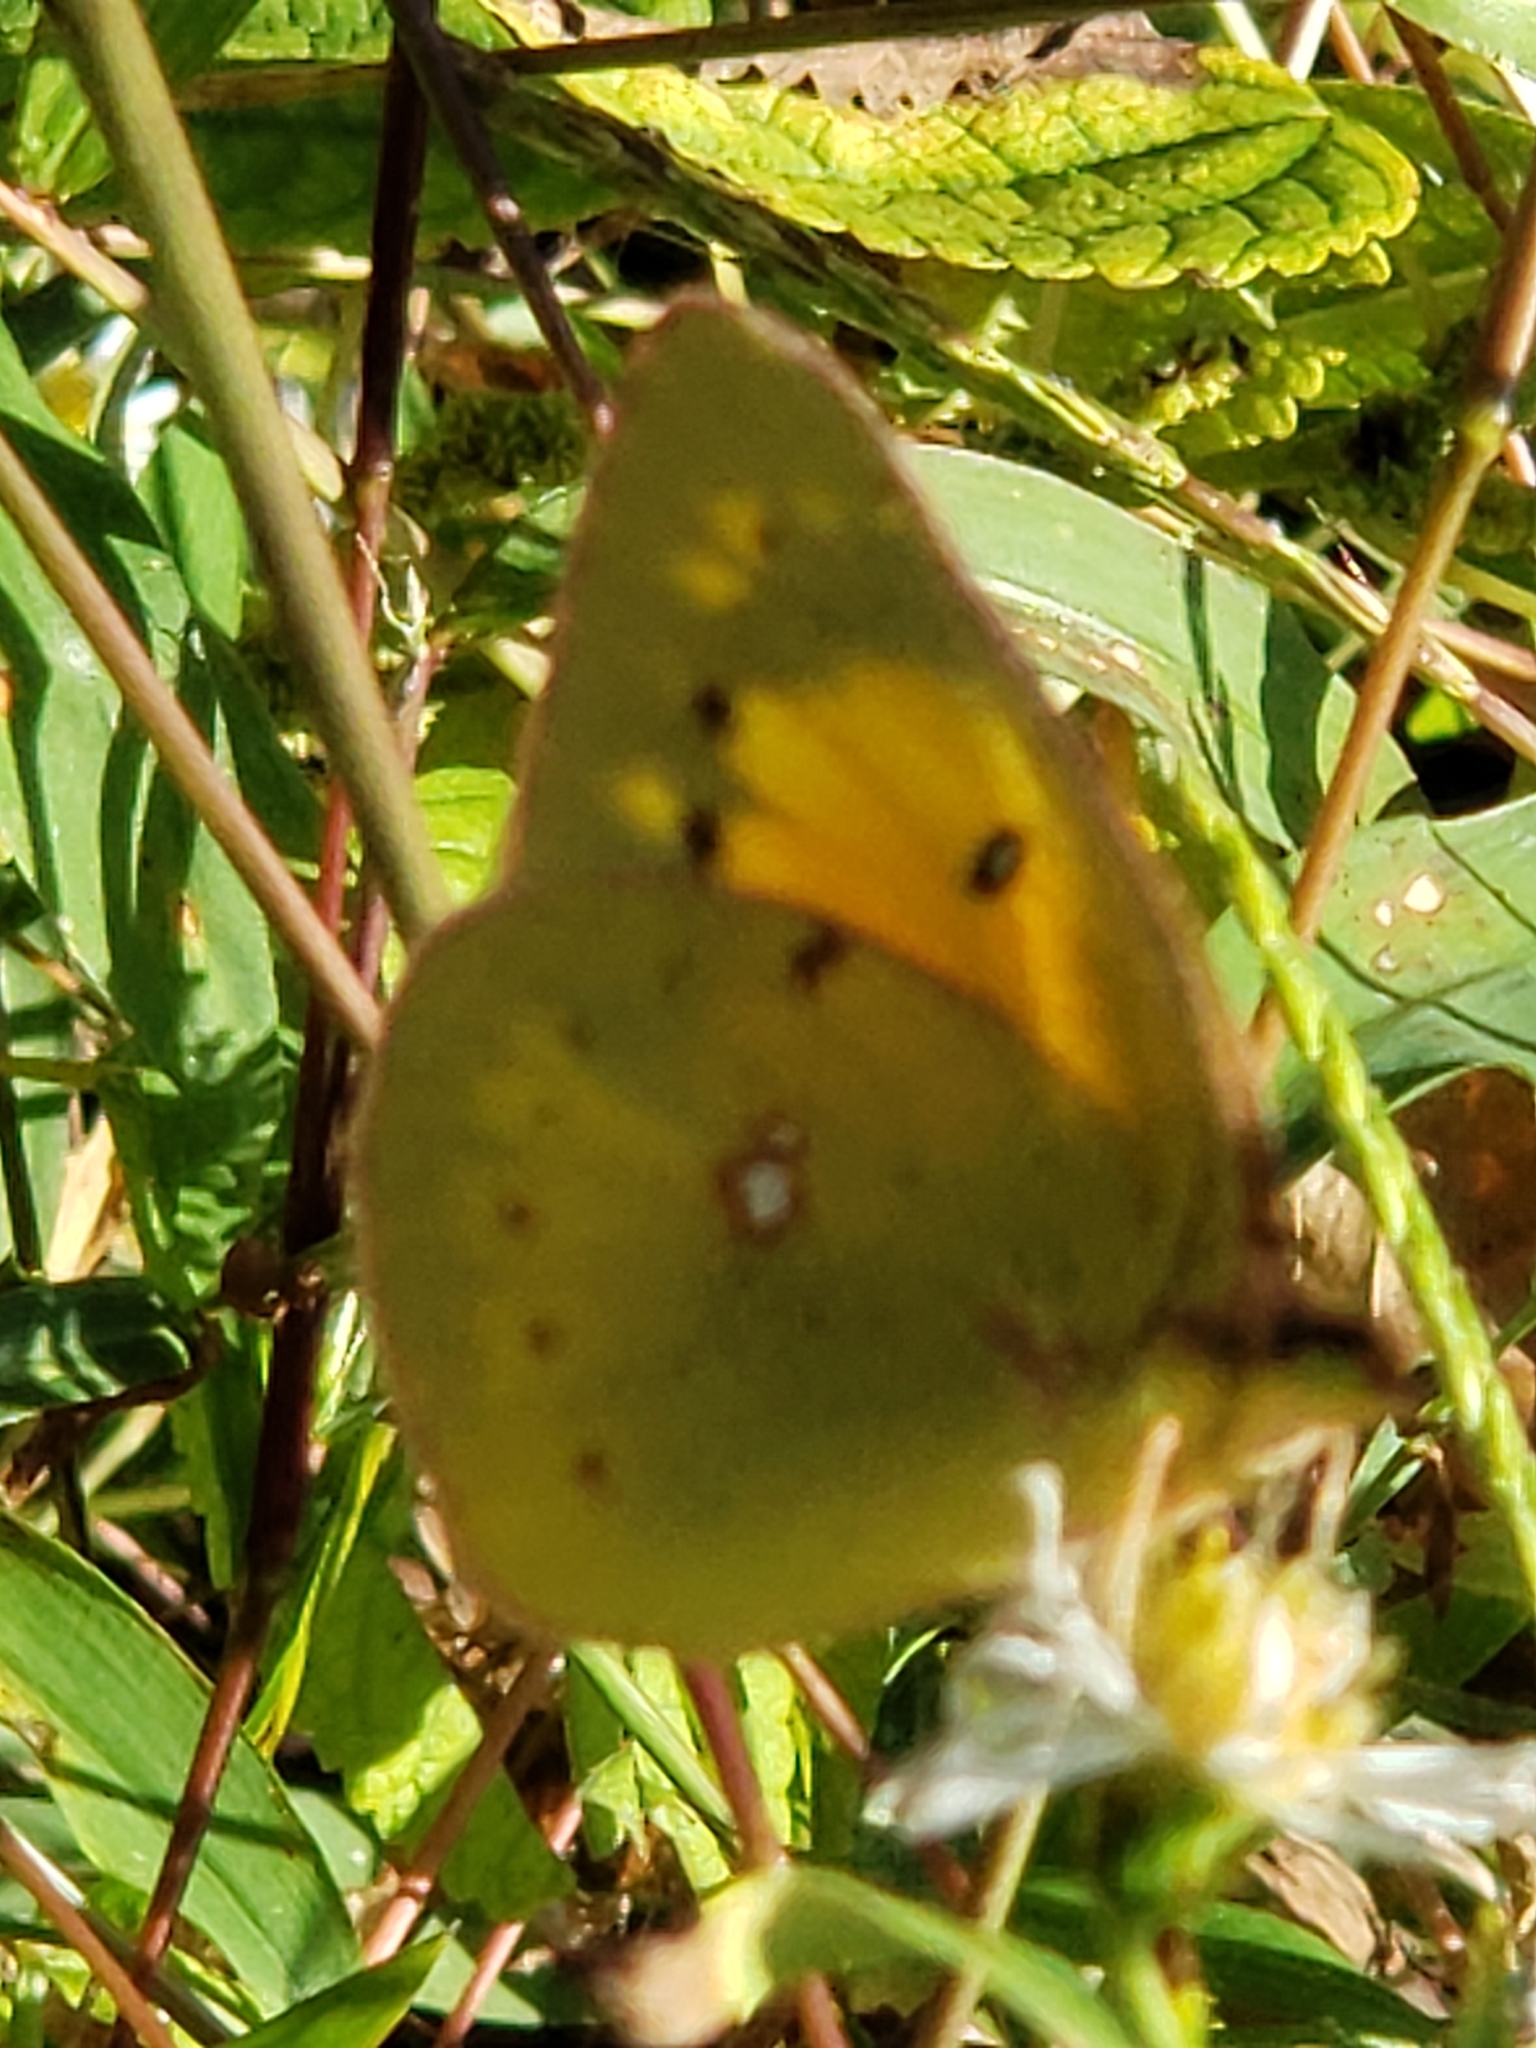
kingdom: Animalia
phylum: Arthropoda
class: Insecta
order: Lepidoptera
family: Pieridae
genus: Colias
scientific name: Colias eurytheme
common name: Alfalfa butterfly
